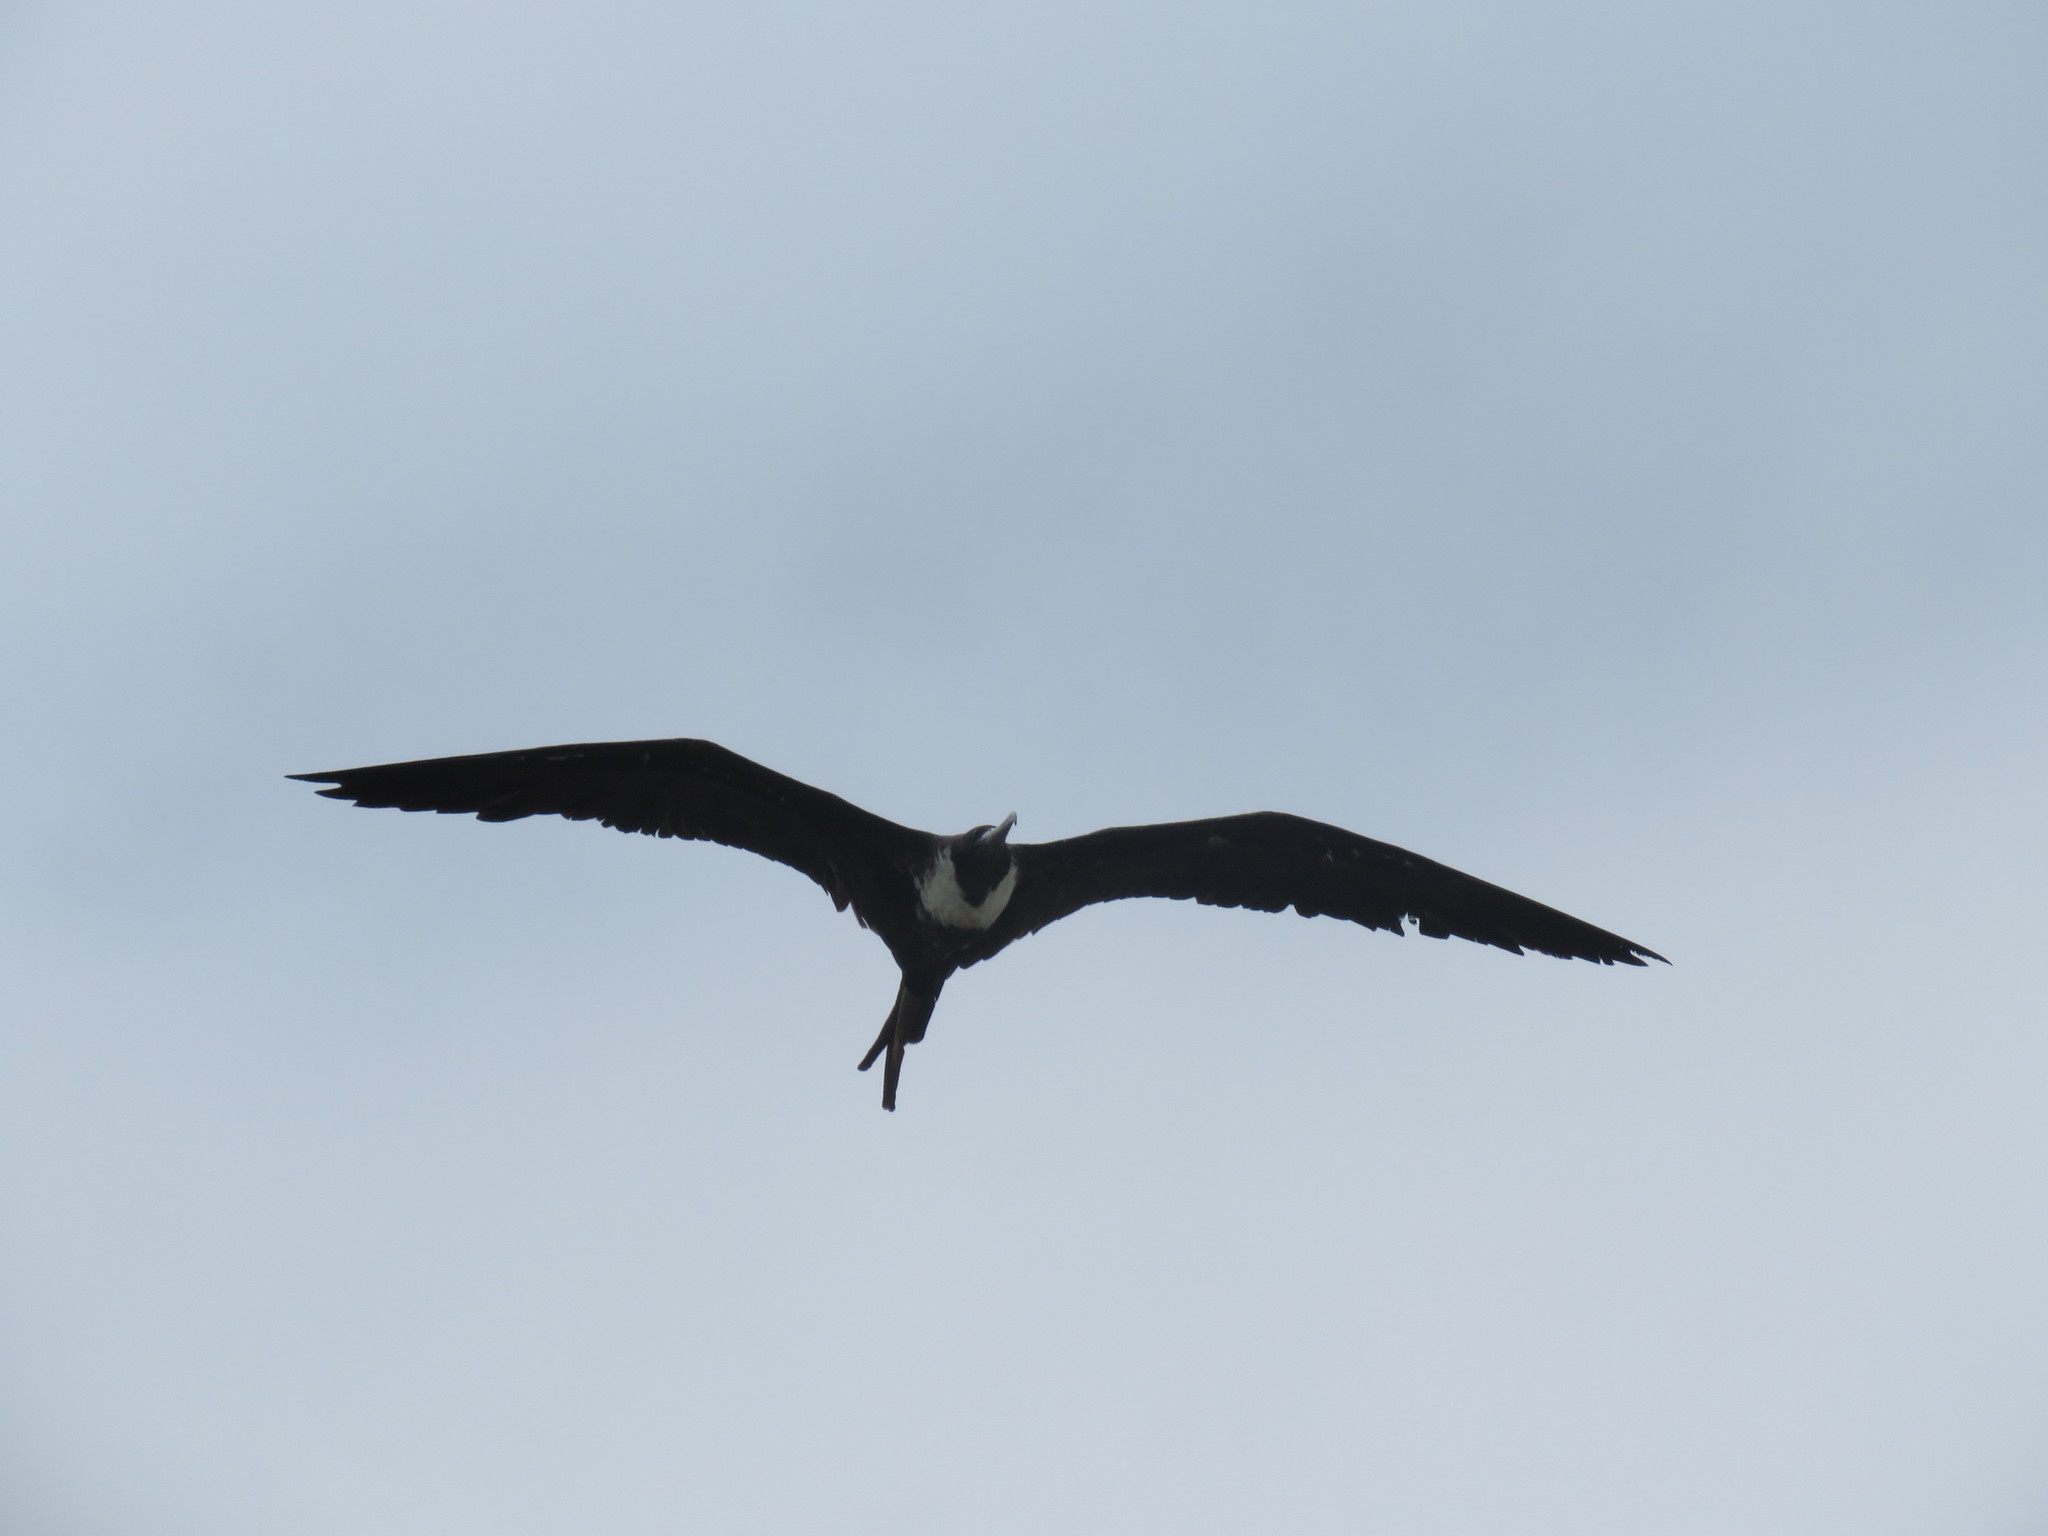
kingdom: Animalia
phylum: Chordata
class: Aves
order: Suliformes
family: Fregatidae
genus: Fregata
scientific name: Fregata magnificens
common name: Magnificent frigatebird
